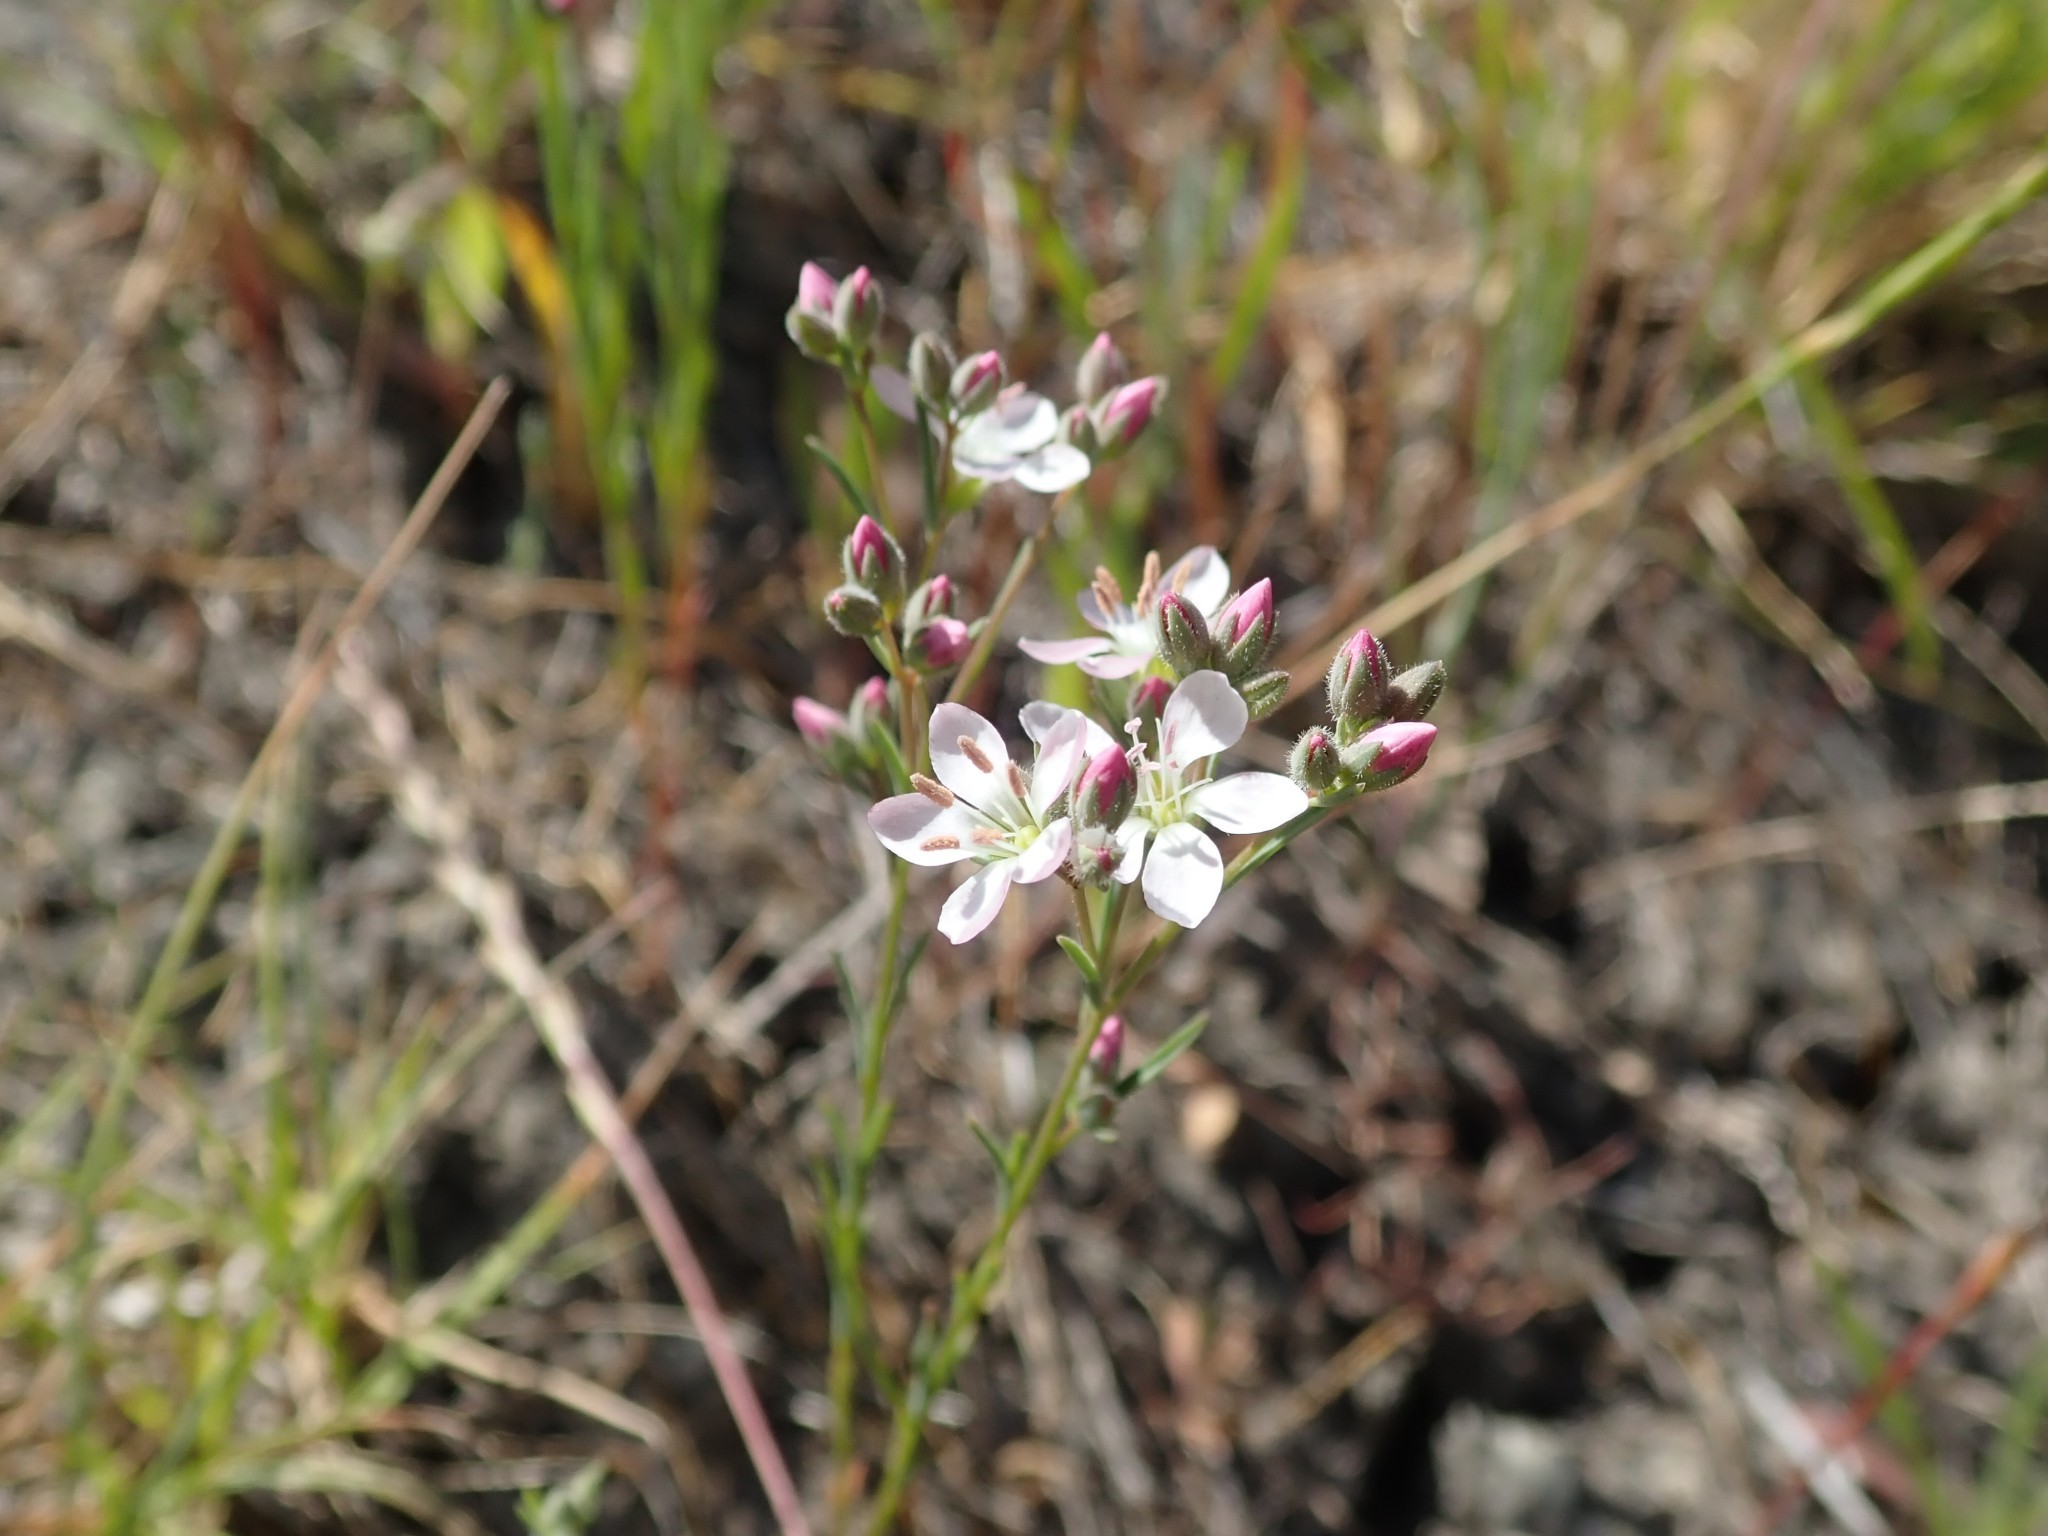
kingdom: Plantae
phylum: Tracheophyta
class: Magnoliopsida
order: Malpighiales
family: Linaceae
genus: Hesperolinon
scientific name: Hesperolinon congestum
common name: Marin dwarf-flax
